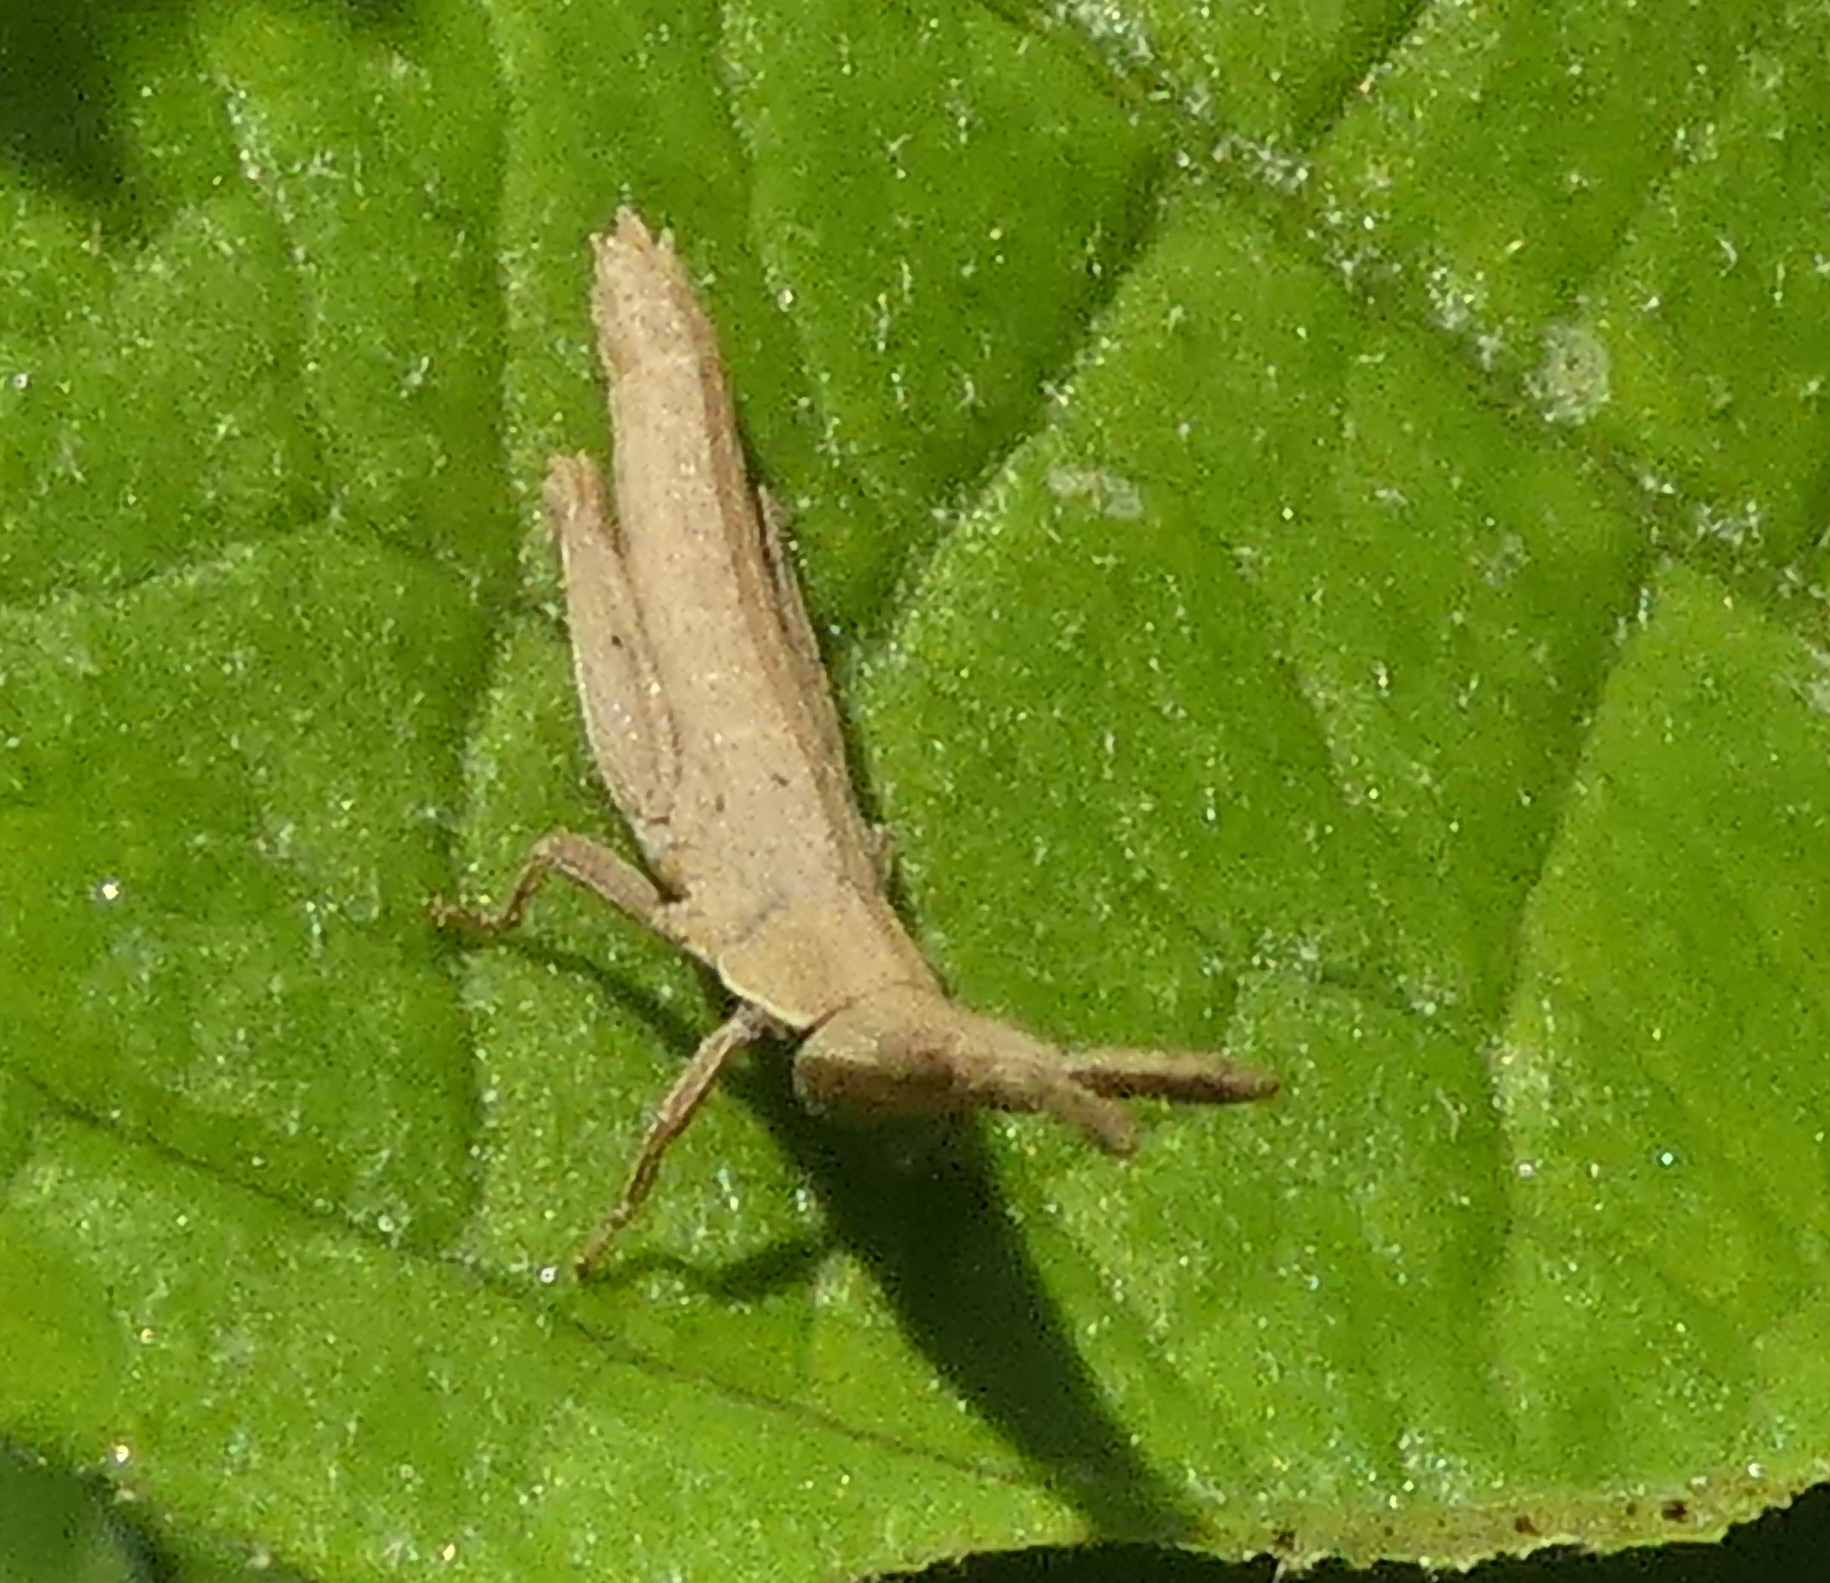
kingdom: Animalia
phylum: Arthropoda
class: Insecta
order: Orthoptera
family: Pyrgomorphidae
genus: Algete
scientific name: Algete brunneri
